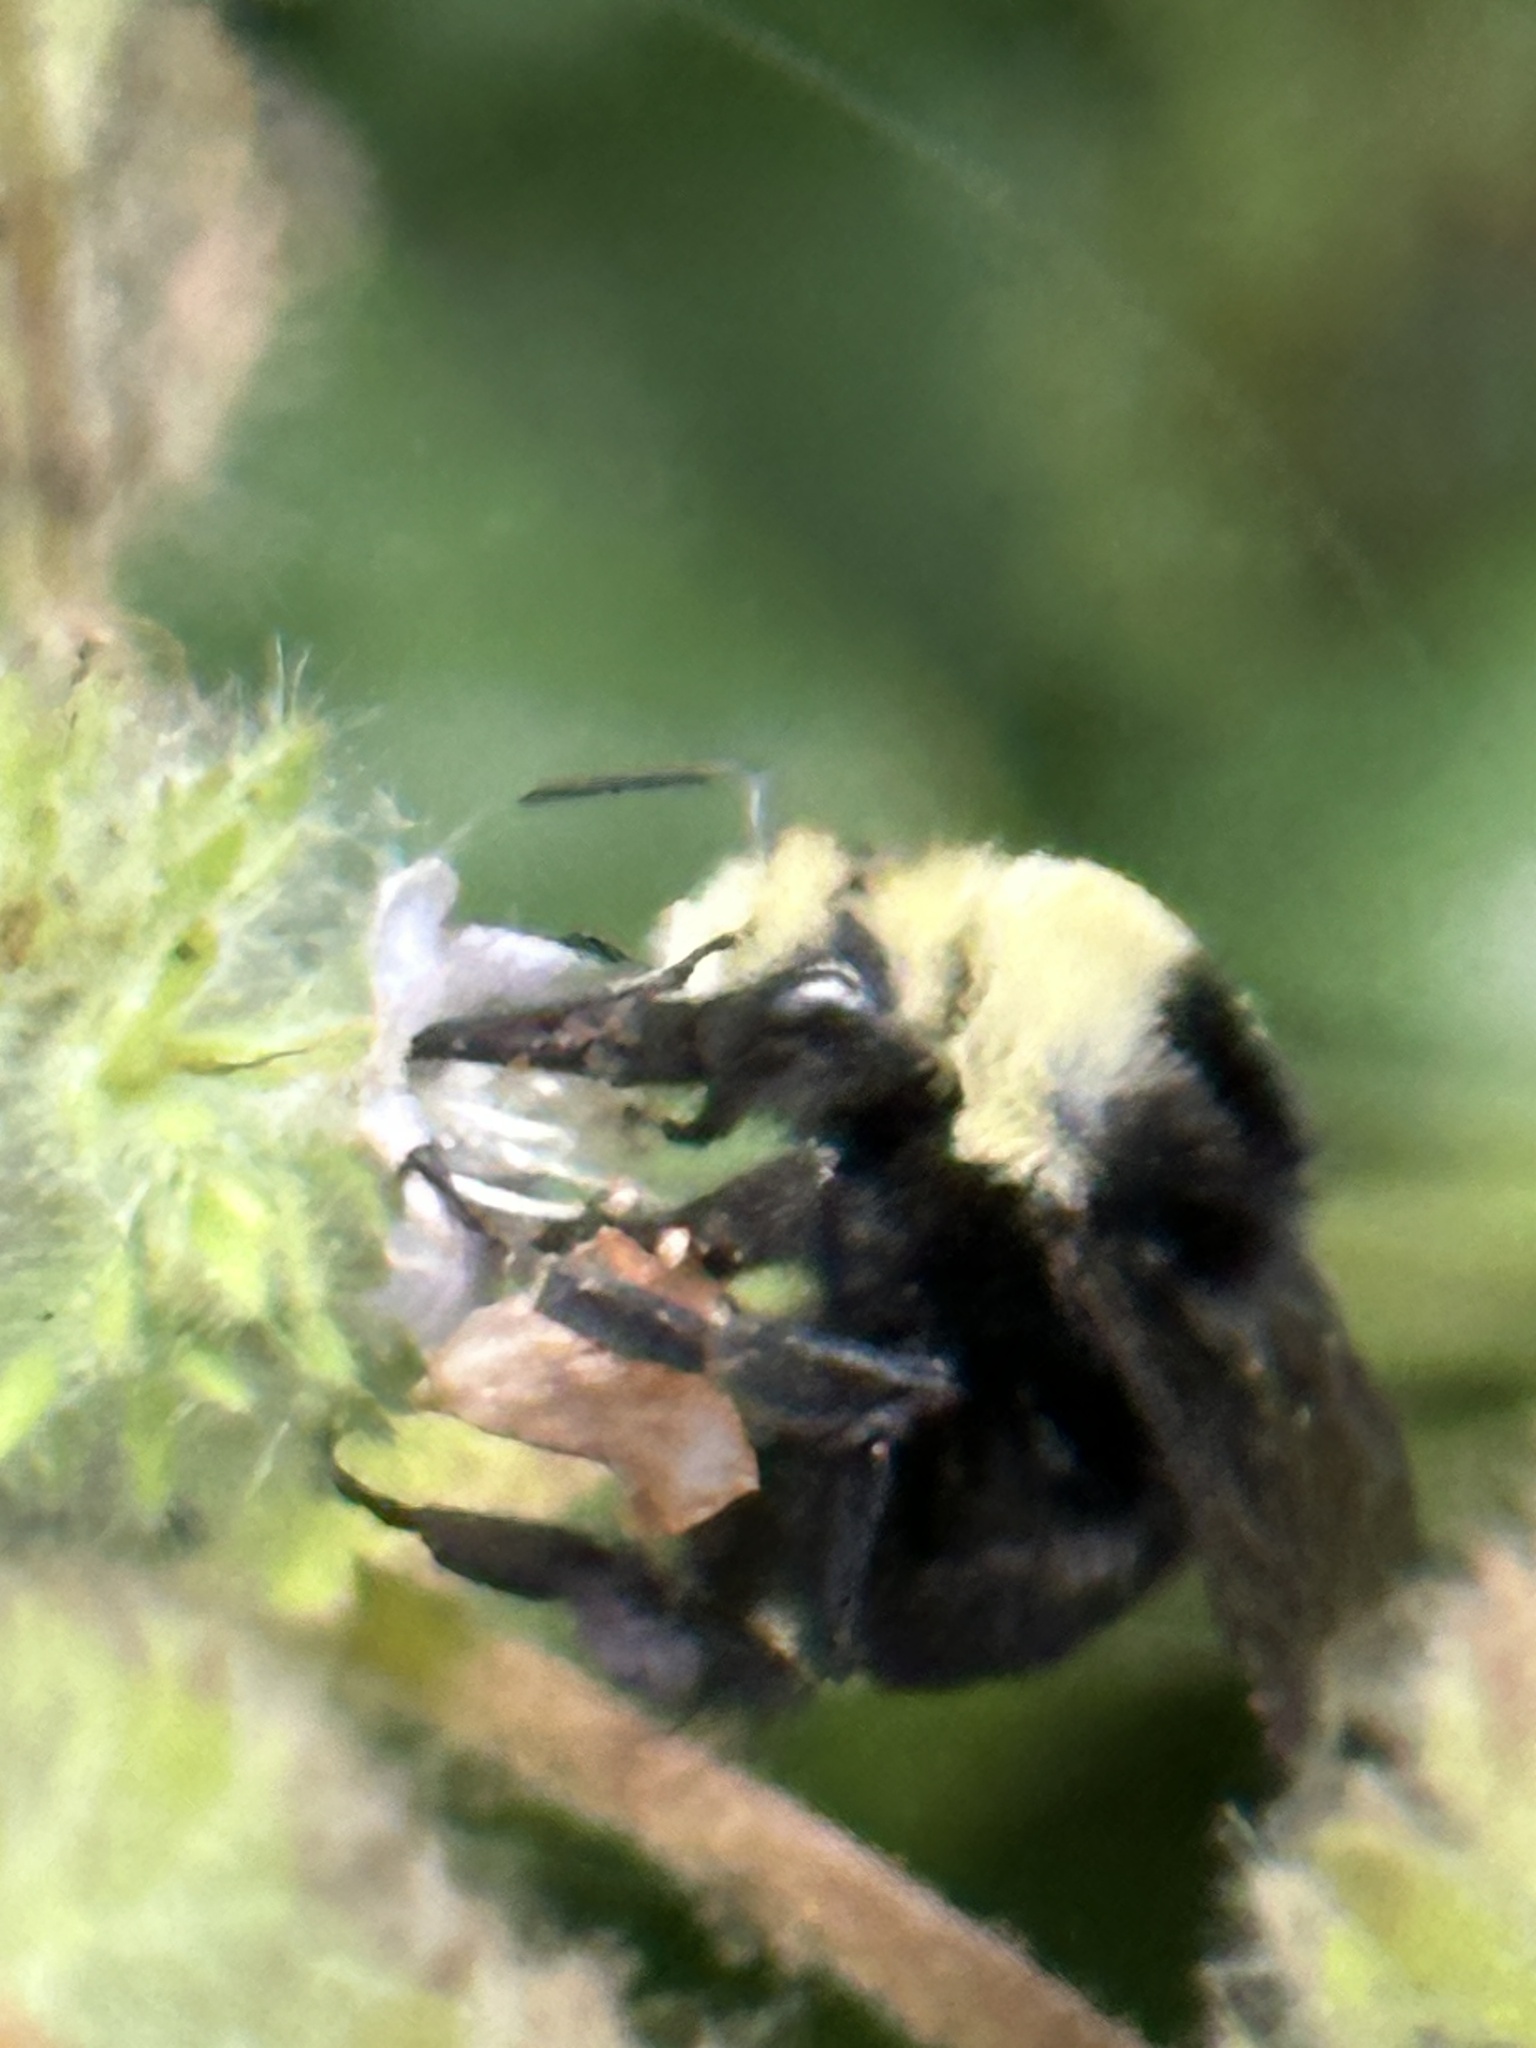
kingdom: Animalia
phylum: Arthropoda
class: Insecta
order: Hymenoptera
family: Apidae
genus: Bombus
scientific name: Bombus vosnesenskii
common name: Vosnesensky bumble bee
